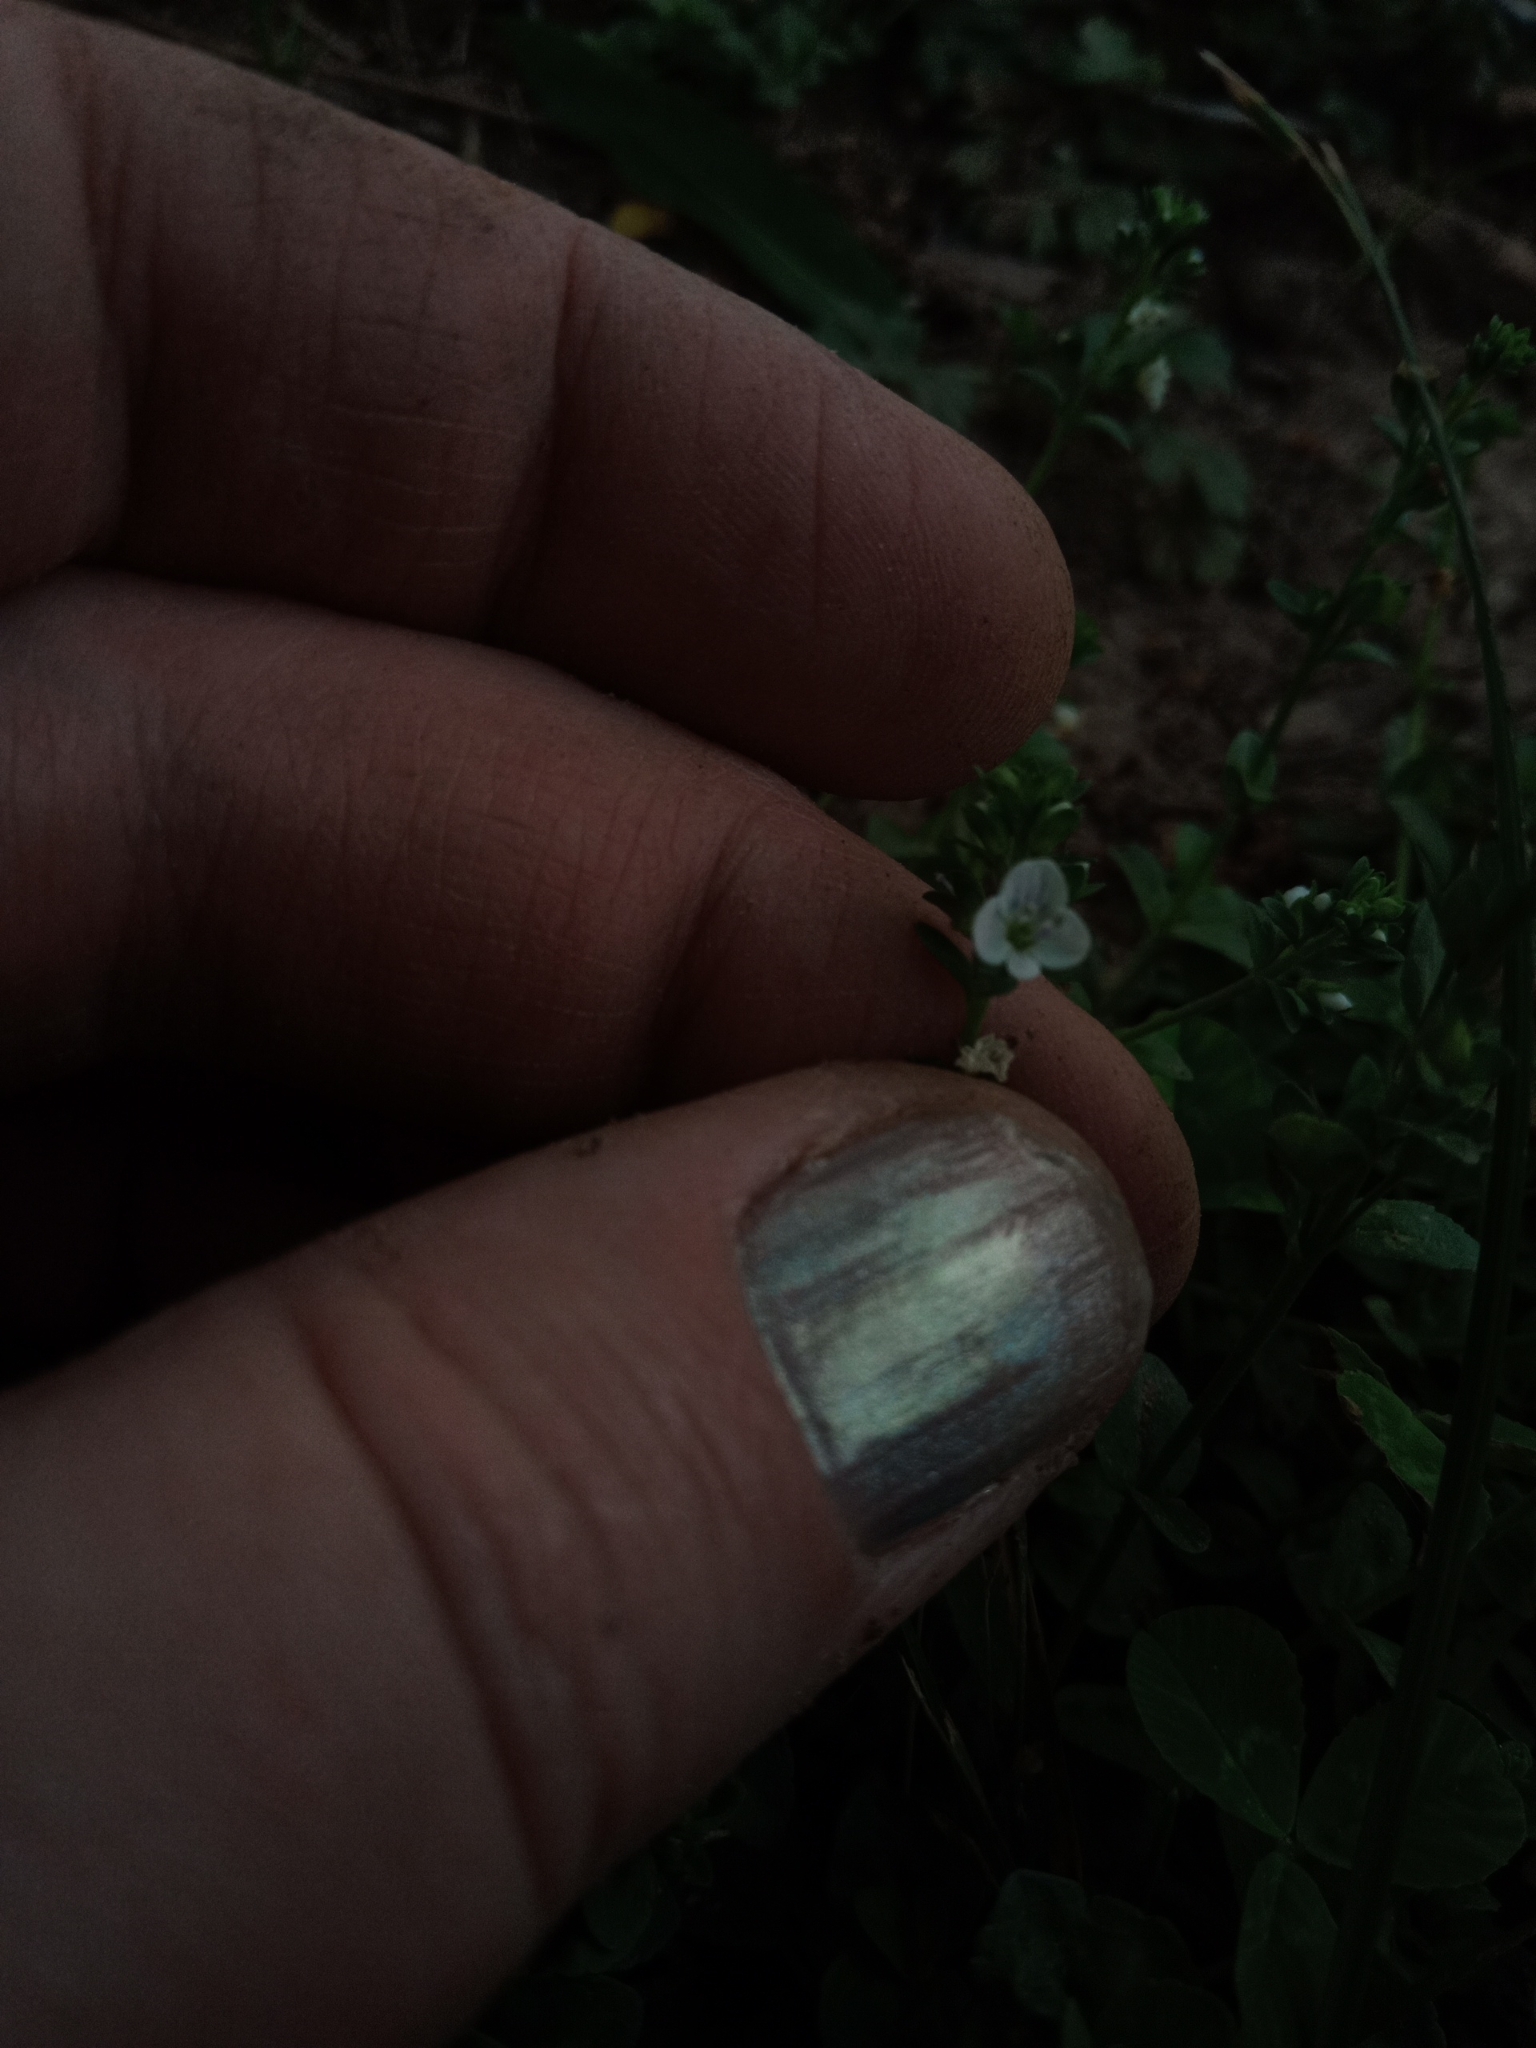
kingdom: Plantae
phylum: Tracheophyta
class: Magnoliopsida
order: Lamiales
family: Plantaginaceae
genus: Veronica
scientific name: Veronica serpyllifolia
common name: Thyme-leaved speedwell
